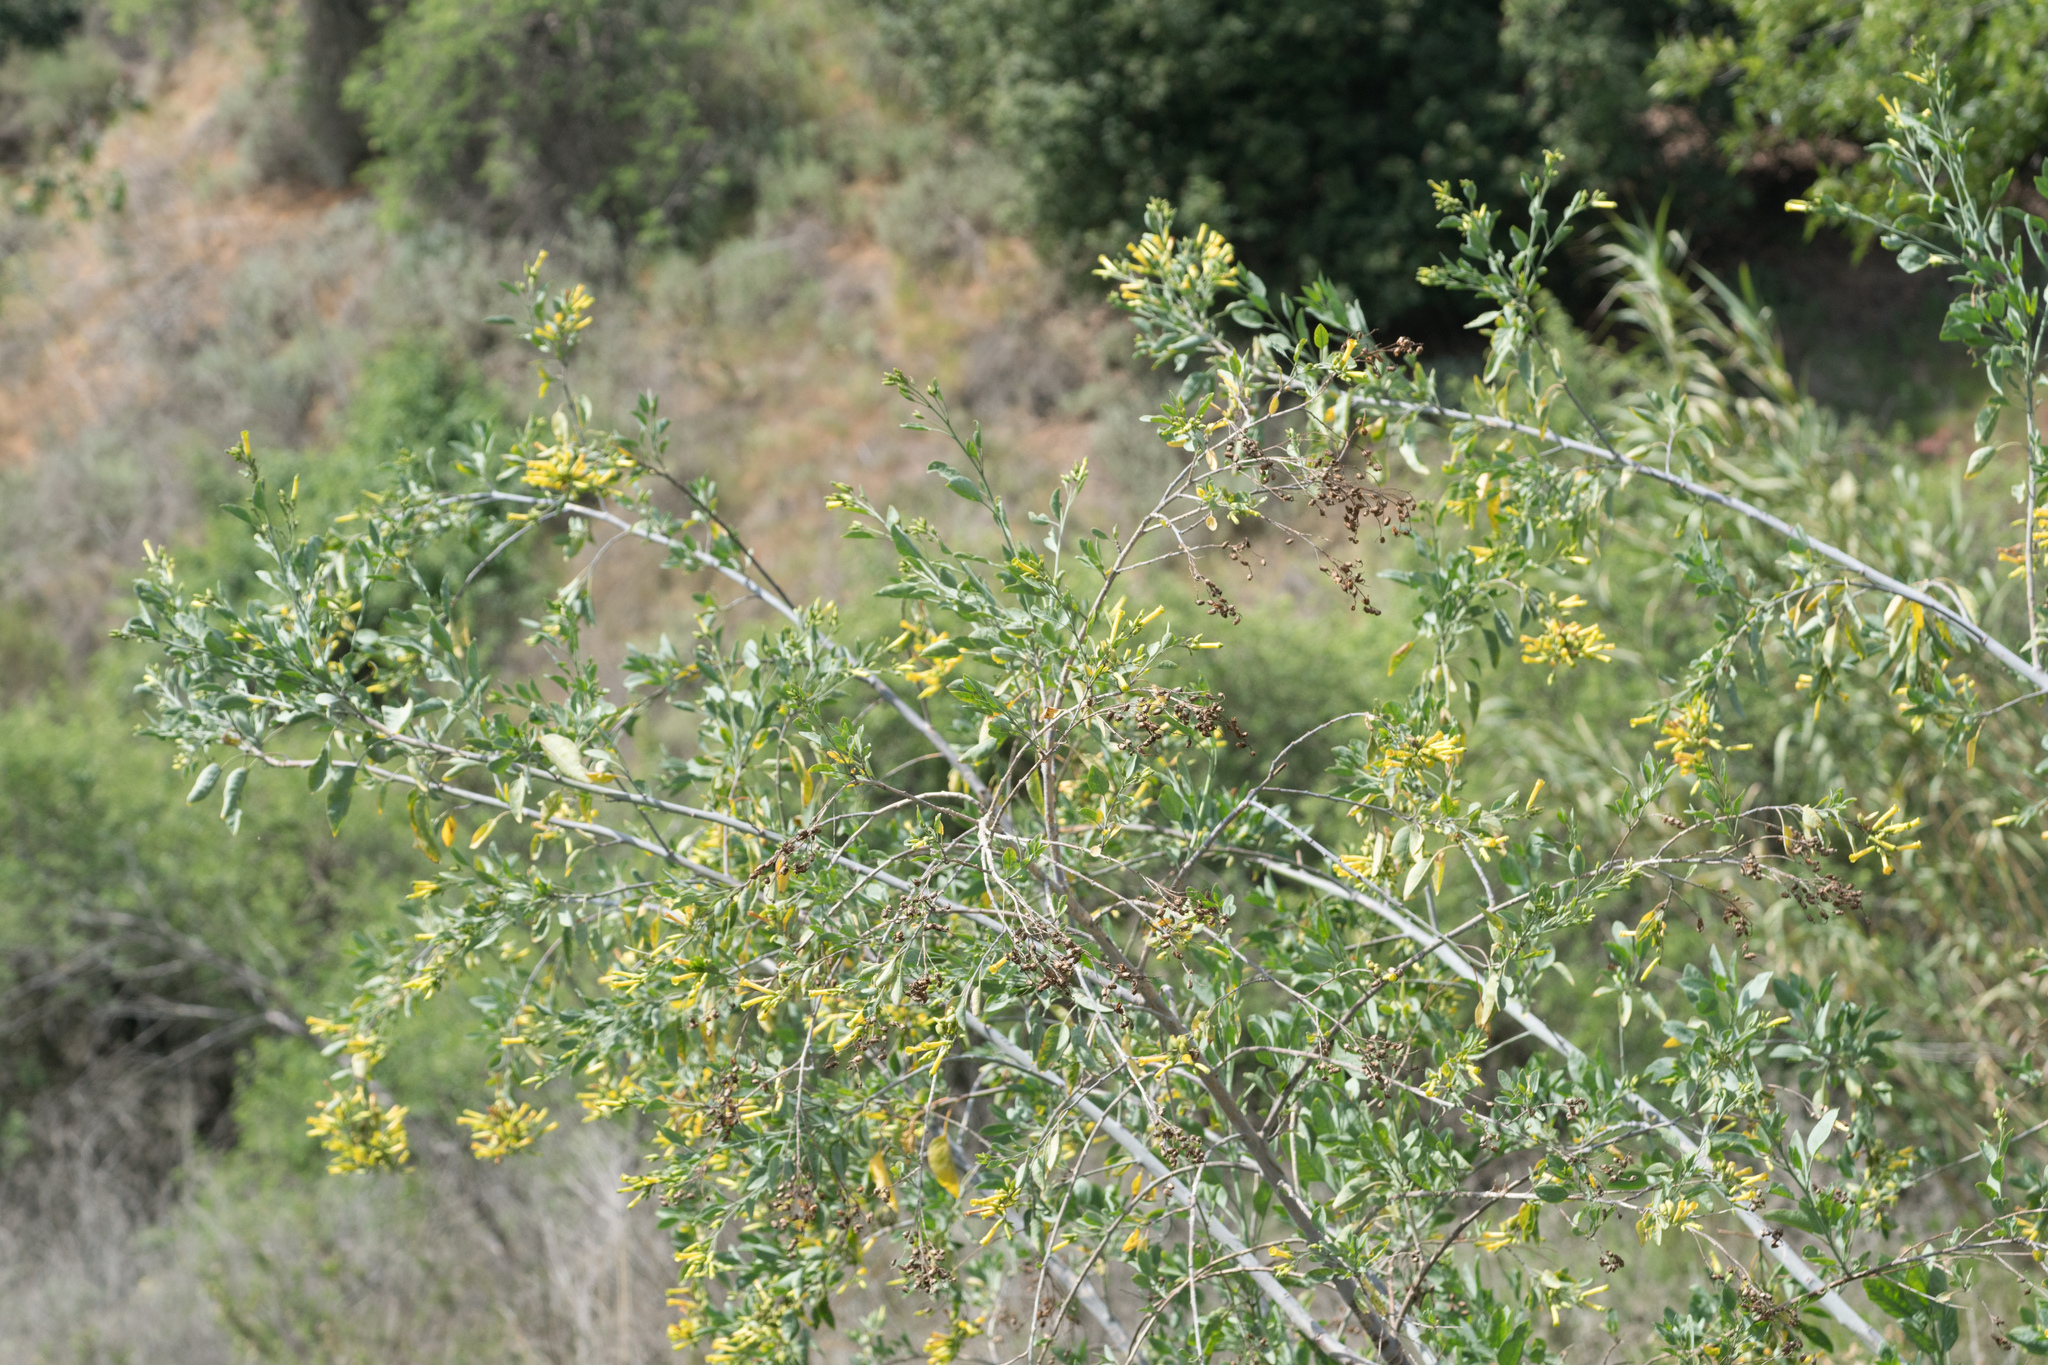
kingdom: Plantae
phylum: Tracheophyta
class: Magnoliopsida
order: Solanales
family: Solanaceae
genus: Nicotiana
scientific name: Nicotiana glauca
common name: Tree tobacco
